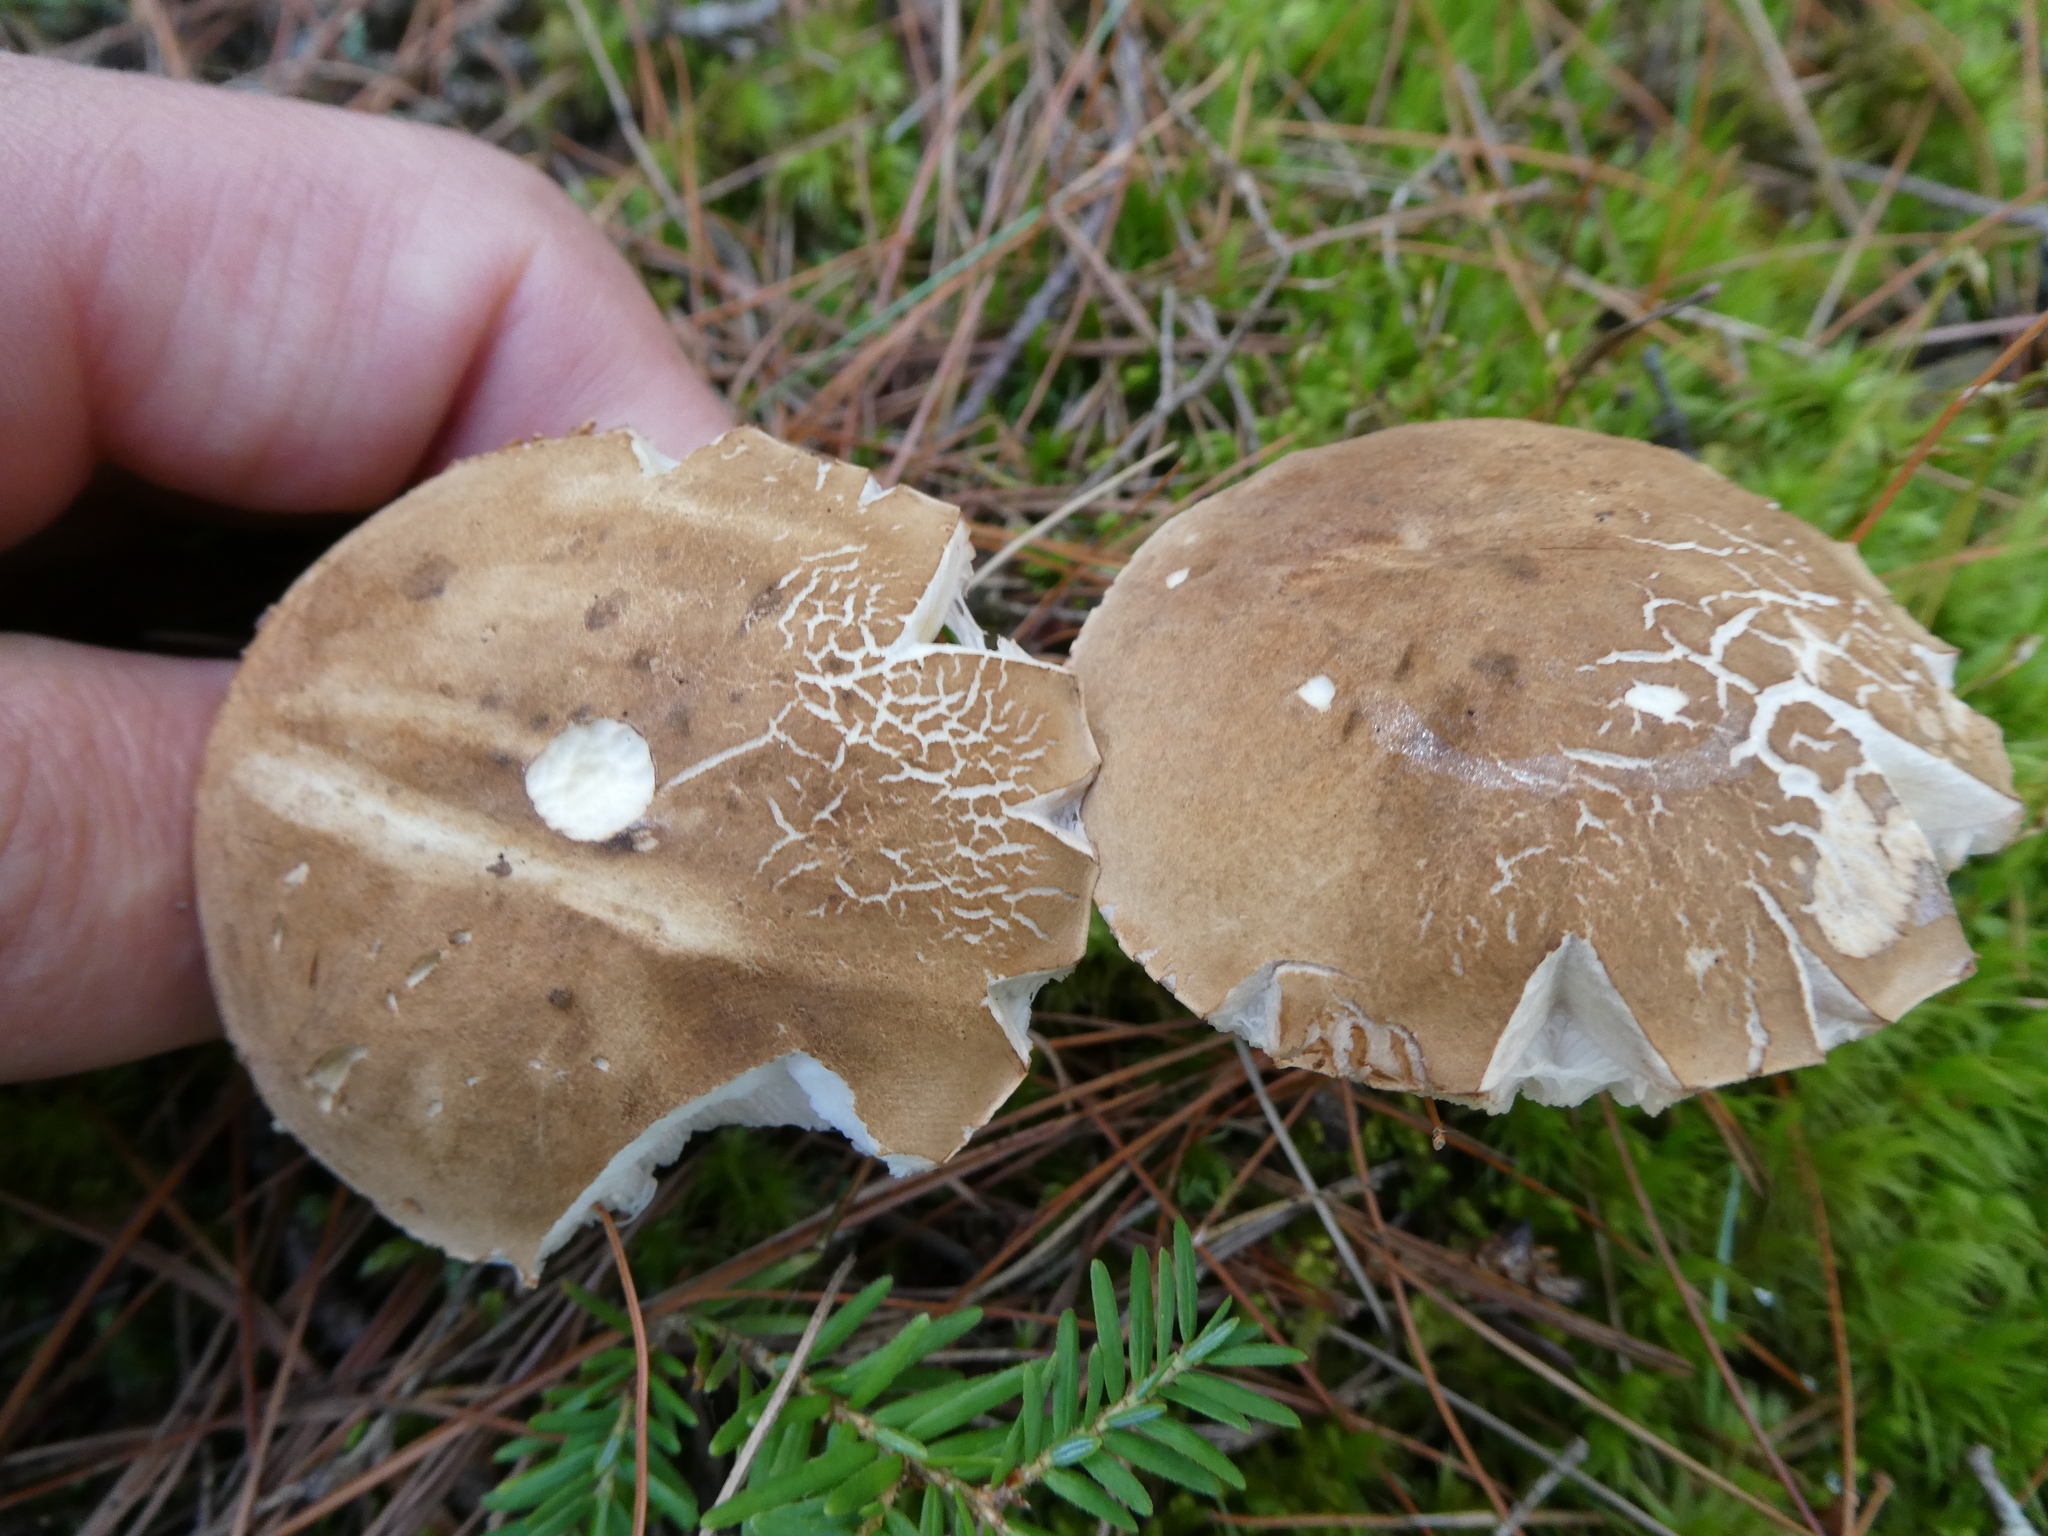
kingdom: Fungi
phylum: Basidiomycota
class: Agaricomycetes
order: Boletales
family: Boletaceae
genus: Tylopilus
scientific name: Tylopilus felleus
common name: Bitter bolete
